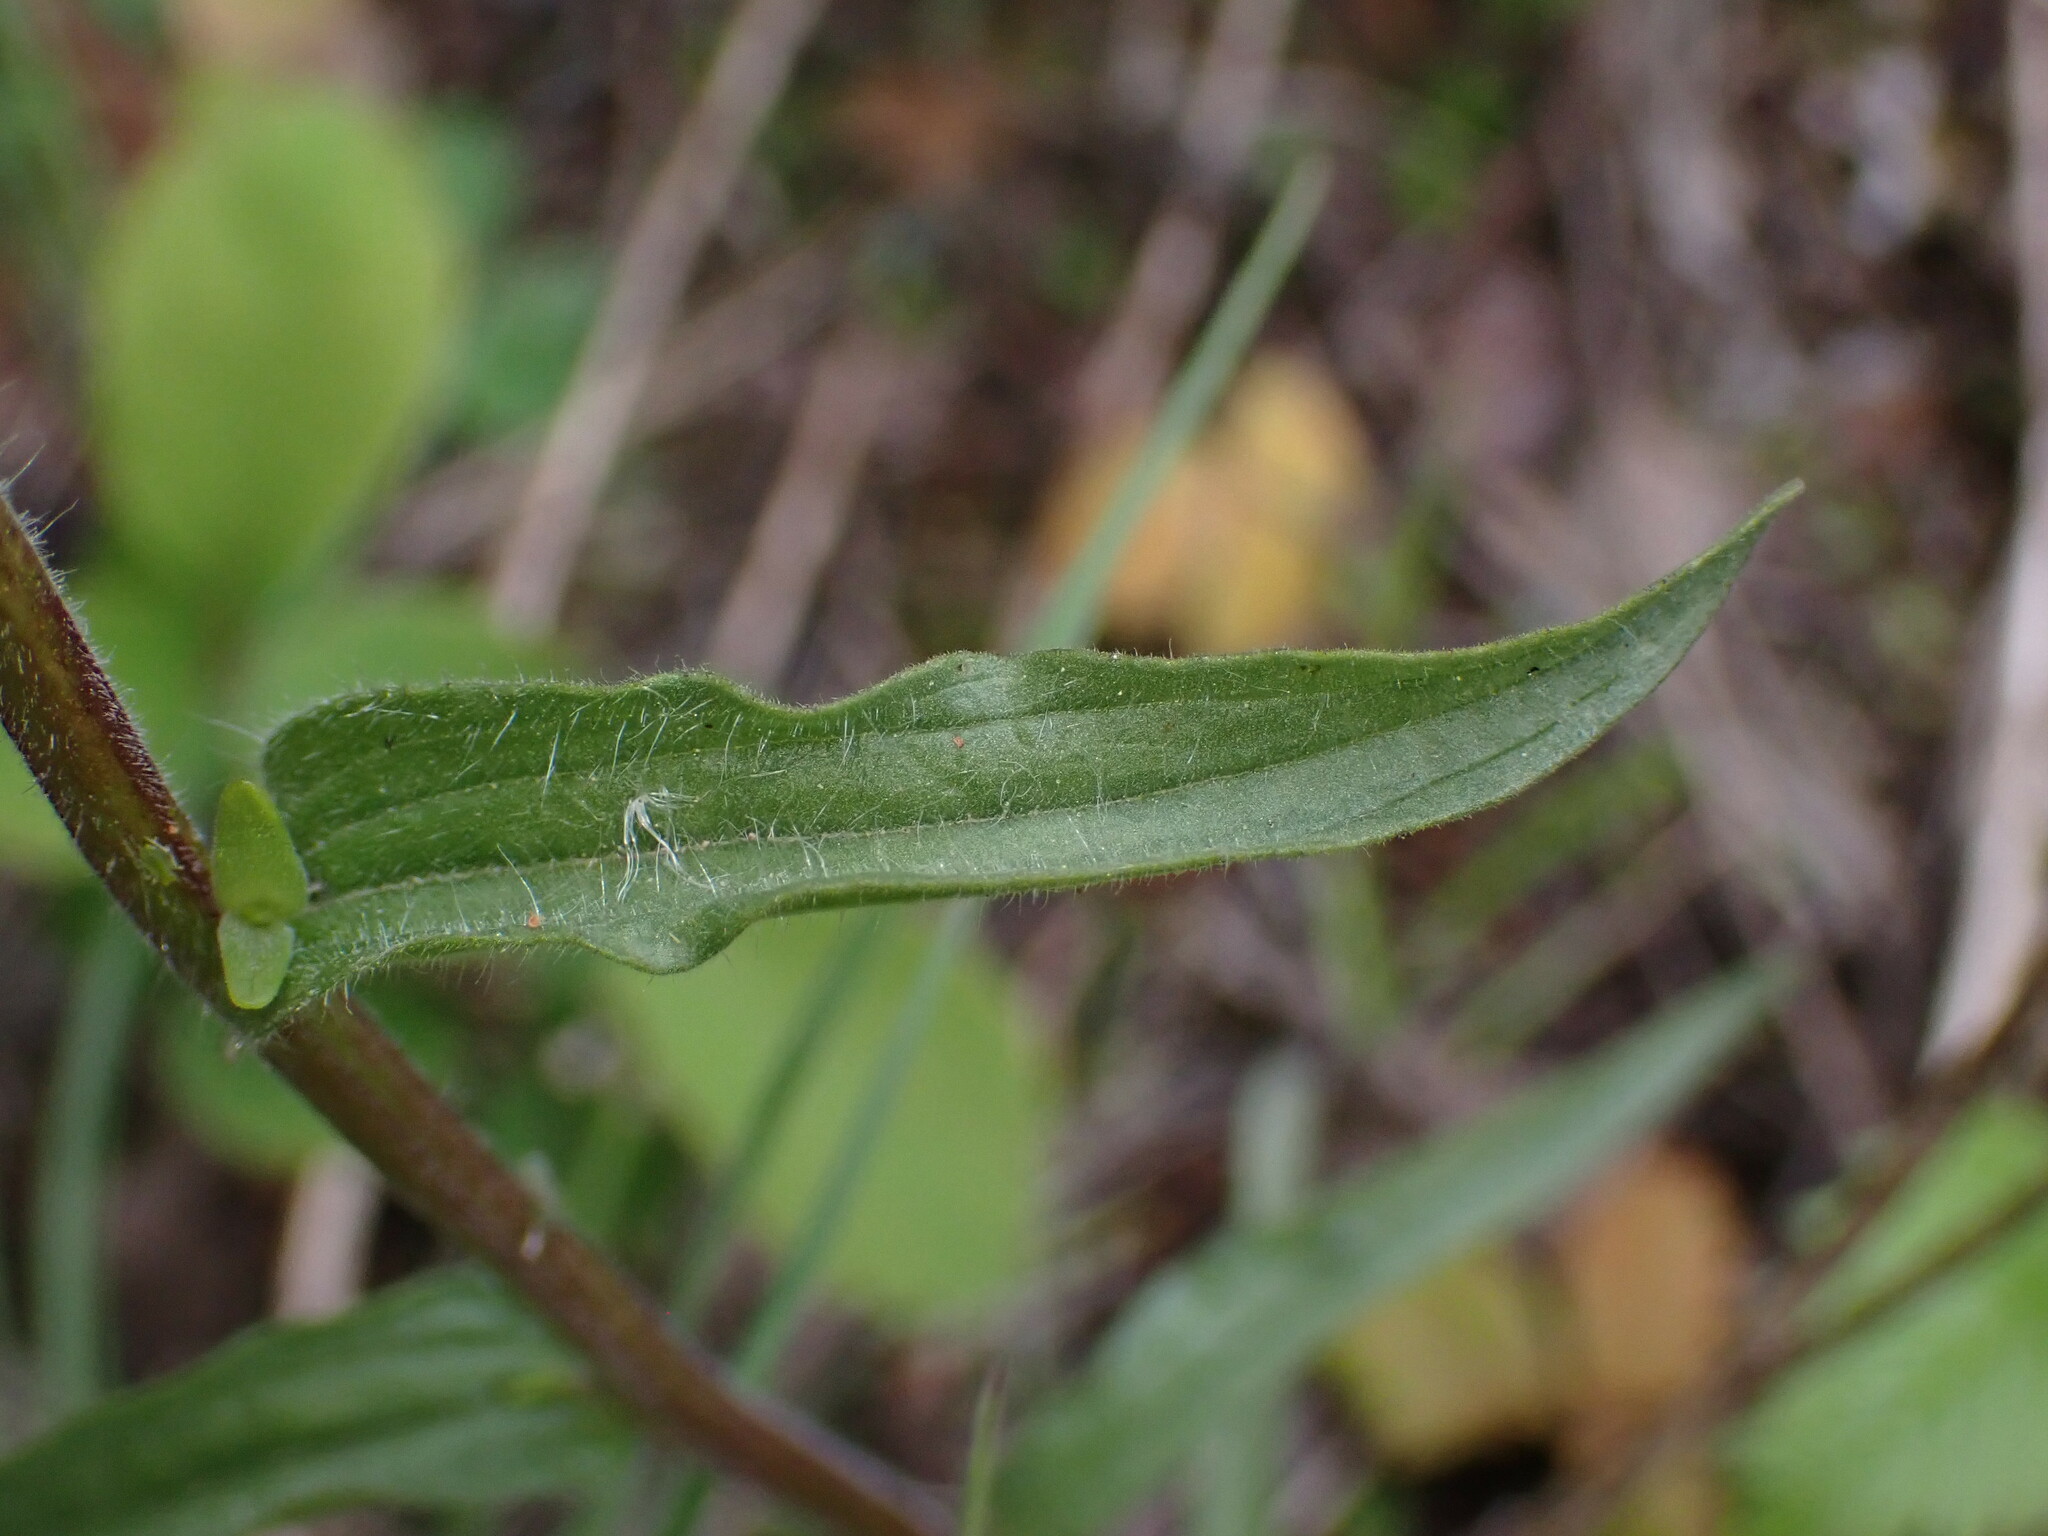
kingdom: Plantae
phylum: Tracheophyta
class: Magnoliopsida
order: Lamiales
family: Orobanchaceae
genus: Castilleja
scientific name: Castilleja hispida
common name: Bristly paintbrush
